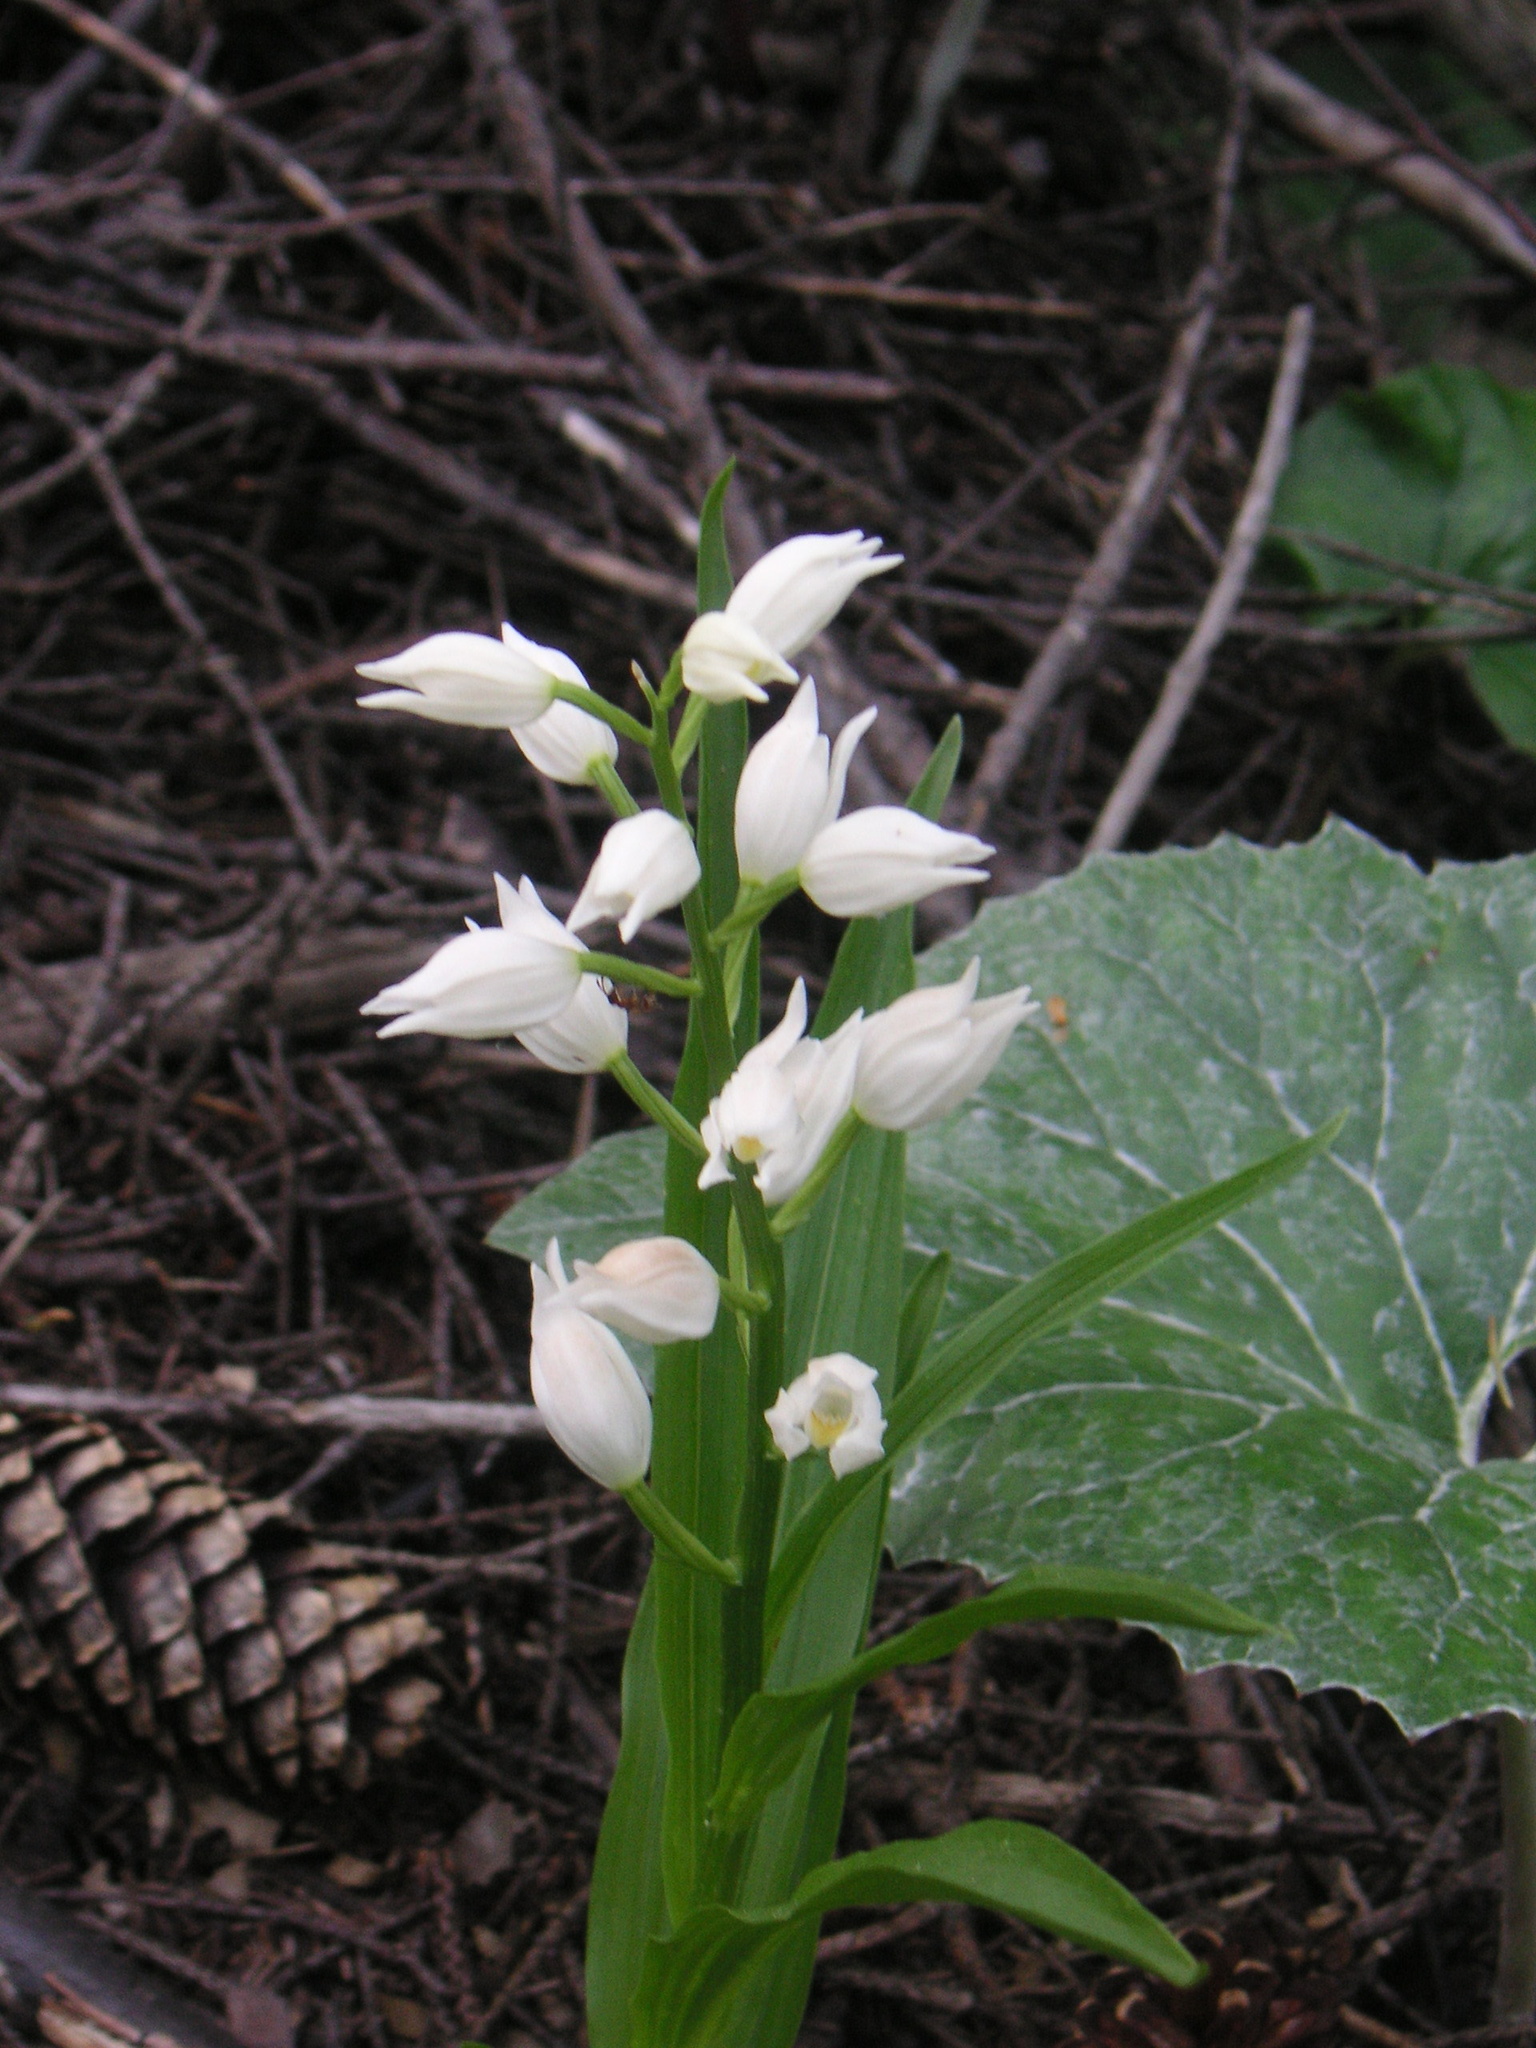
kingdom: Plantae
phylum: Tracheophyta
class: Liliopsida
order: Asparagales
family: Orchidaceae
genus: Cephalanthera
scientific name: Cephalanthera longifolia
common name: Narrow-leaved helleborine
